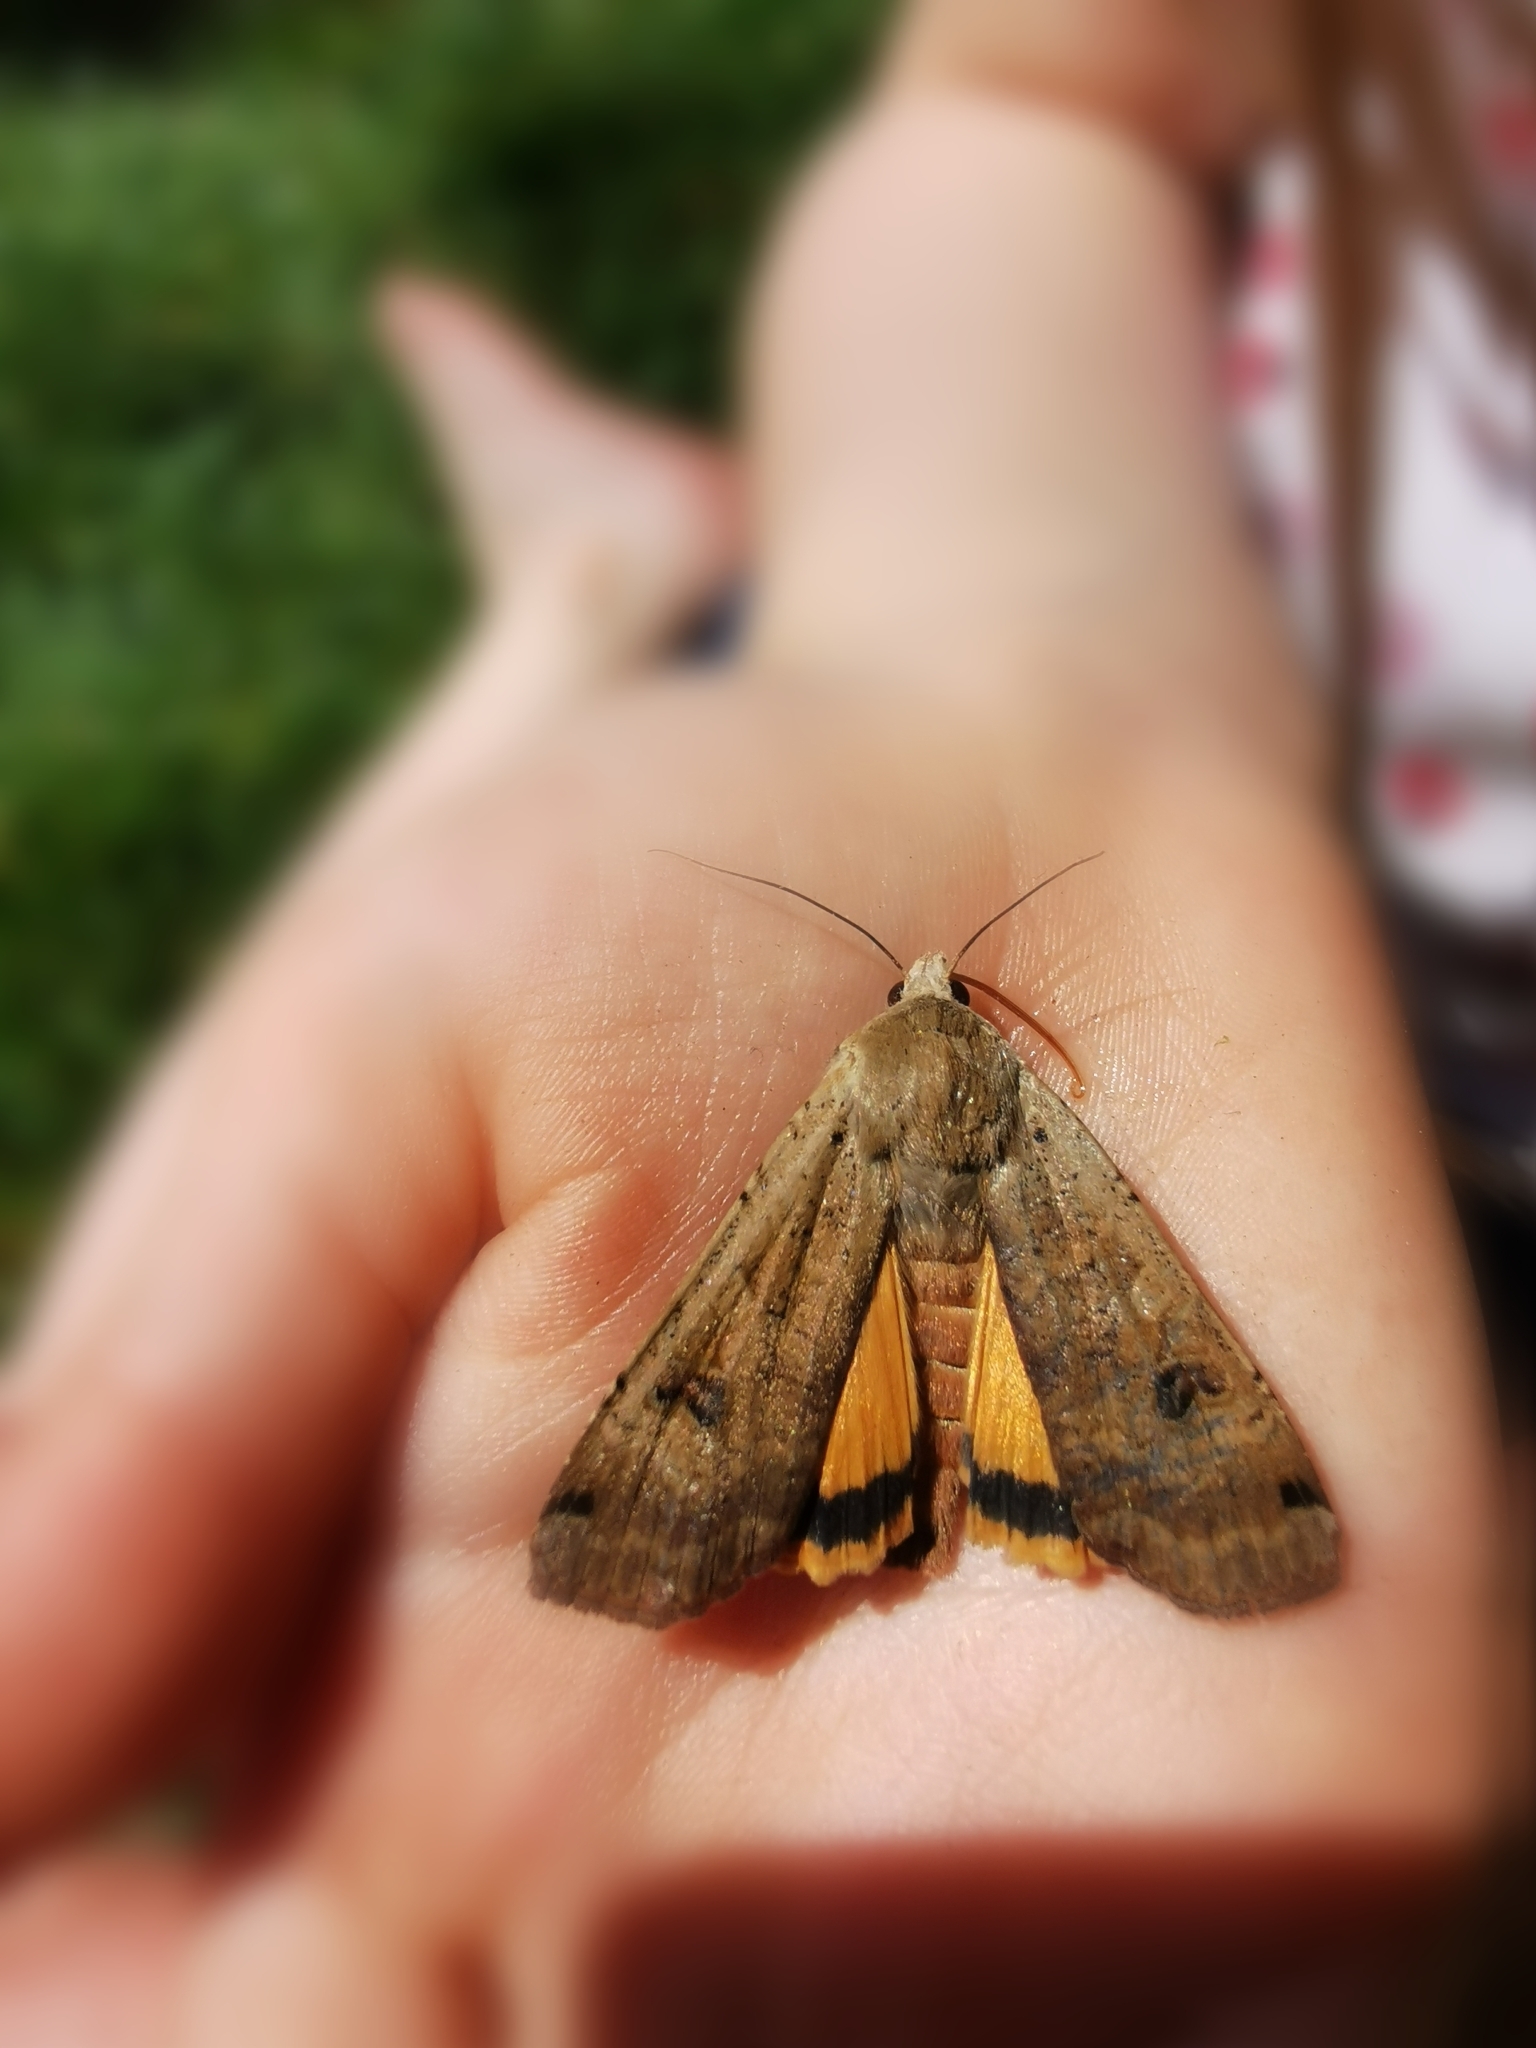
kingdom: Animalia
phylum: Arthropoda
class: Insecta
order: Lepidoptera
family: Noctuidae
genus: Noctua
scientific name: Noctua pronuba
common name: Large yellow underwing
